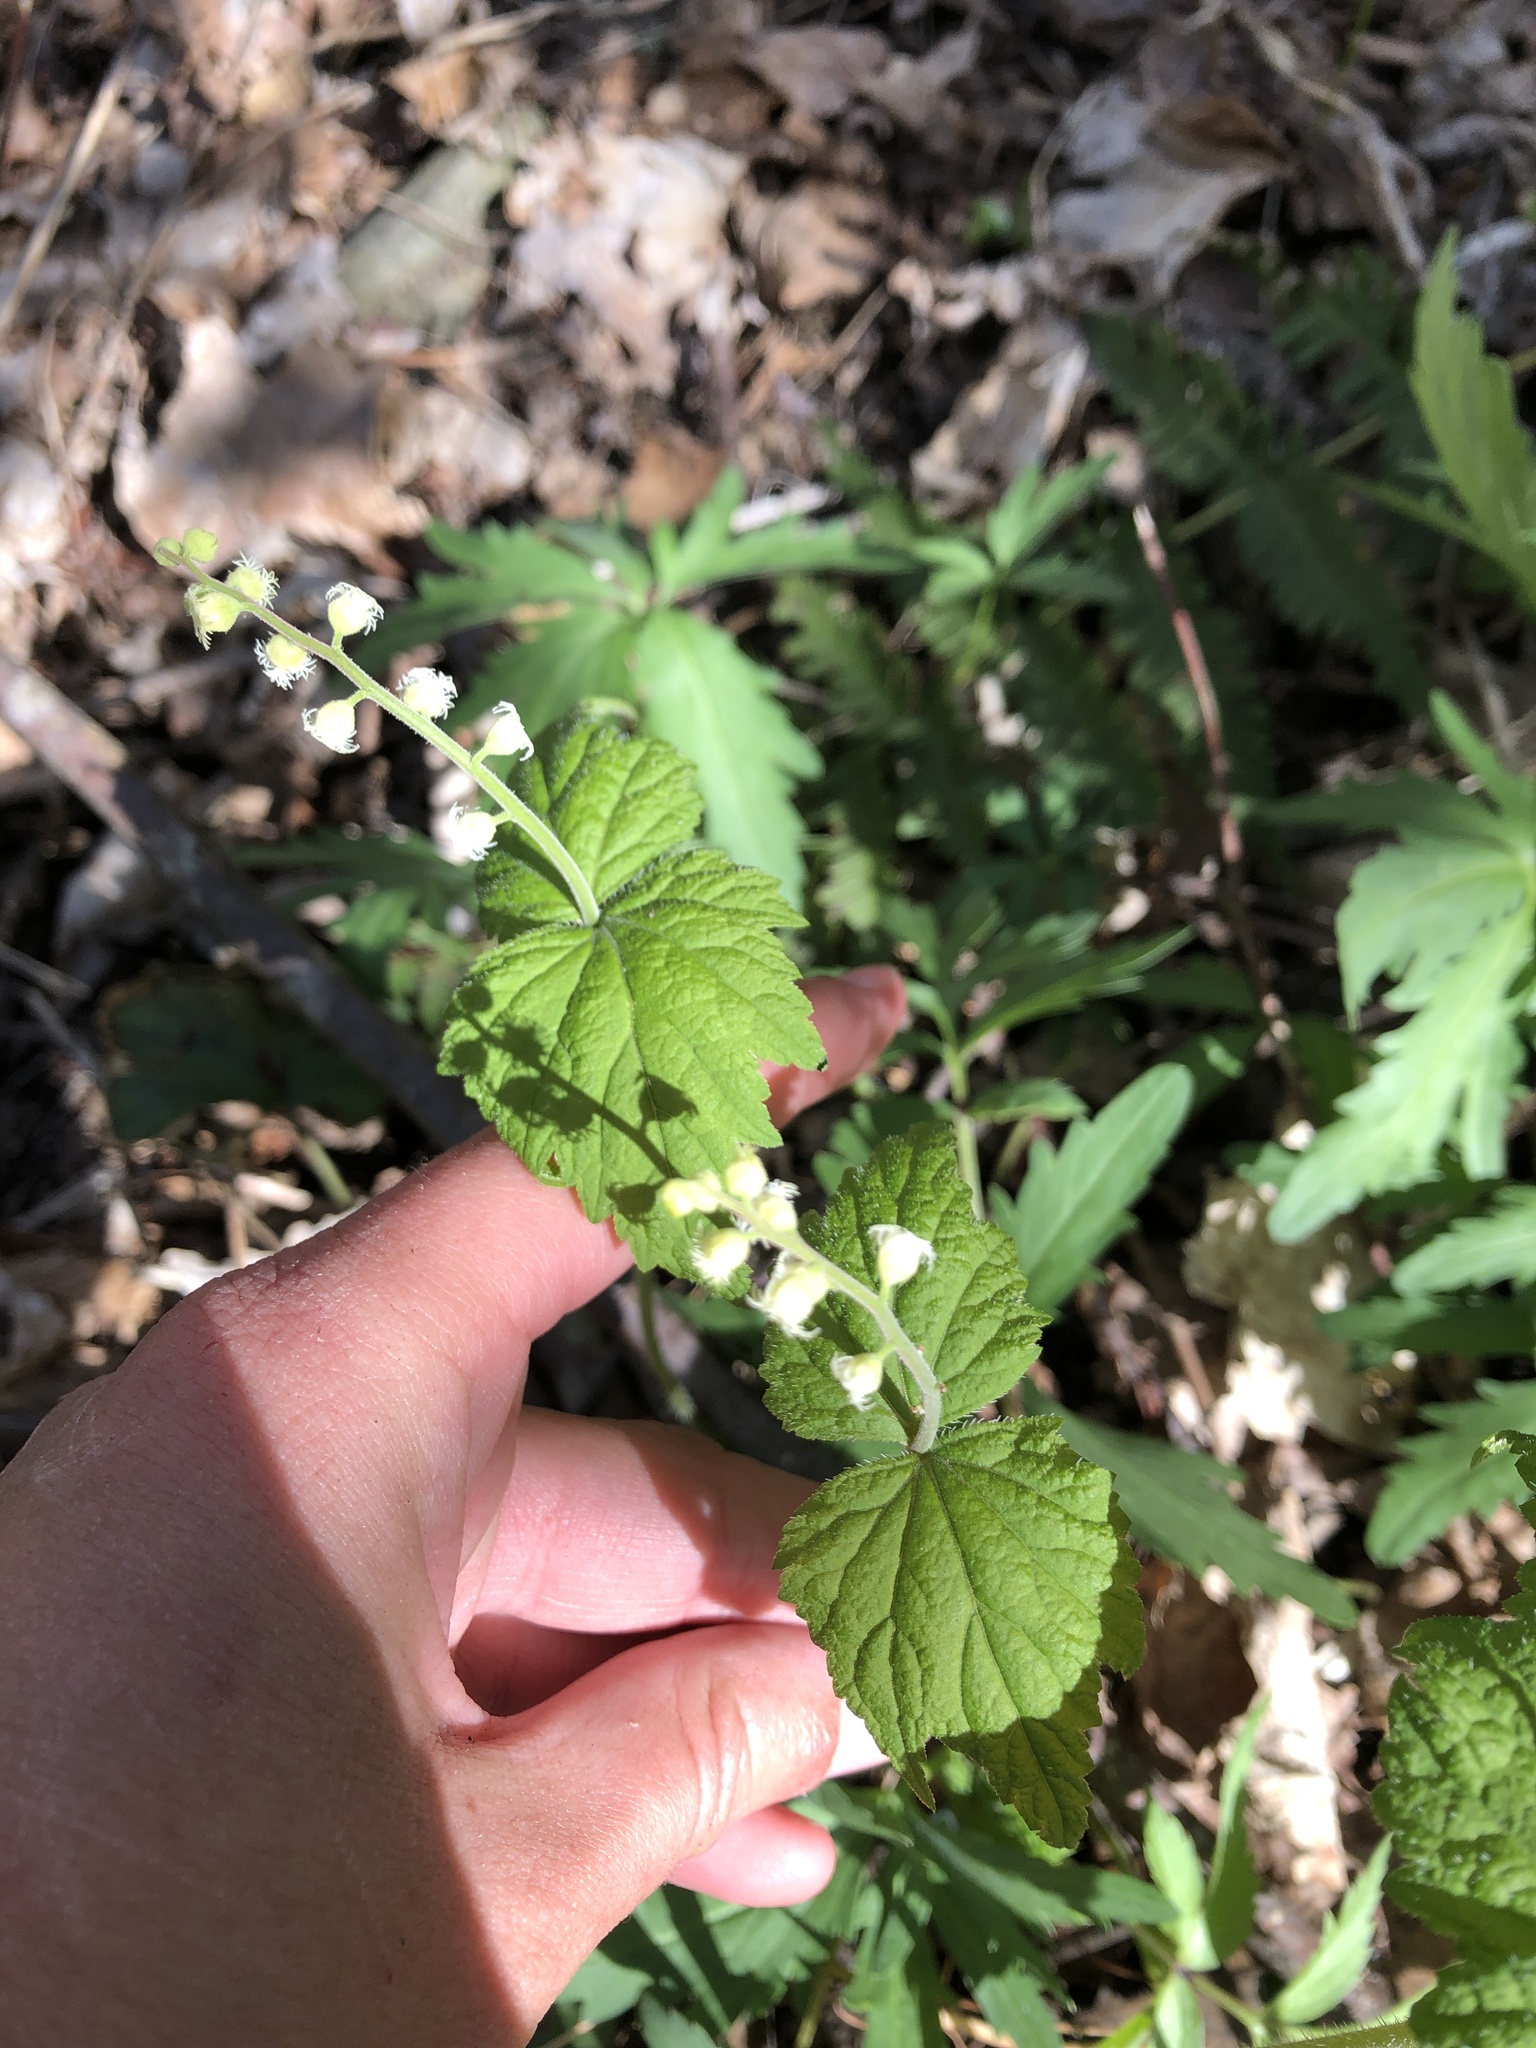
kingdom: Plantae
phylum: Tracheophyta
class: Magnoliopsida
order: Saxifragales
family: Saxifragaceae
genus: Mitella
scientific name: Mitella diphylla
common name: Coolwort
